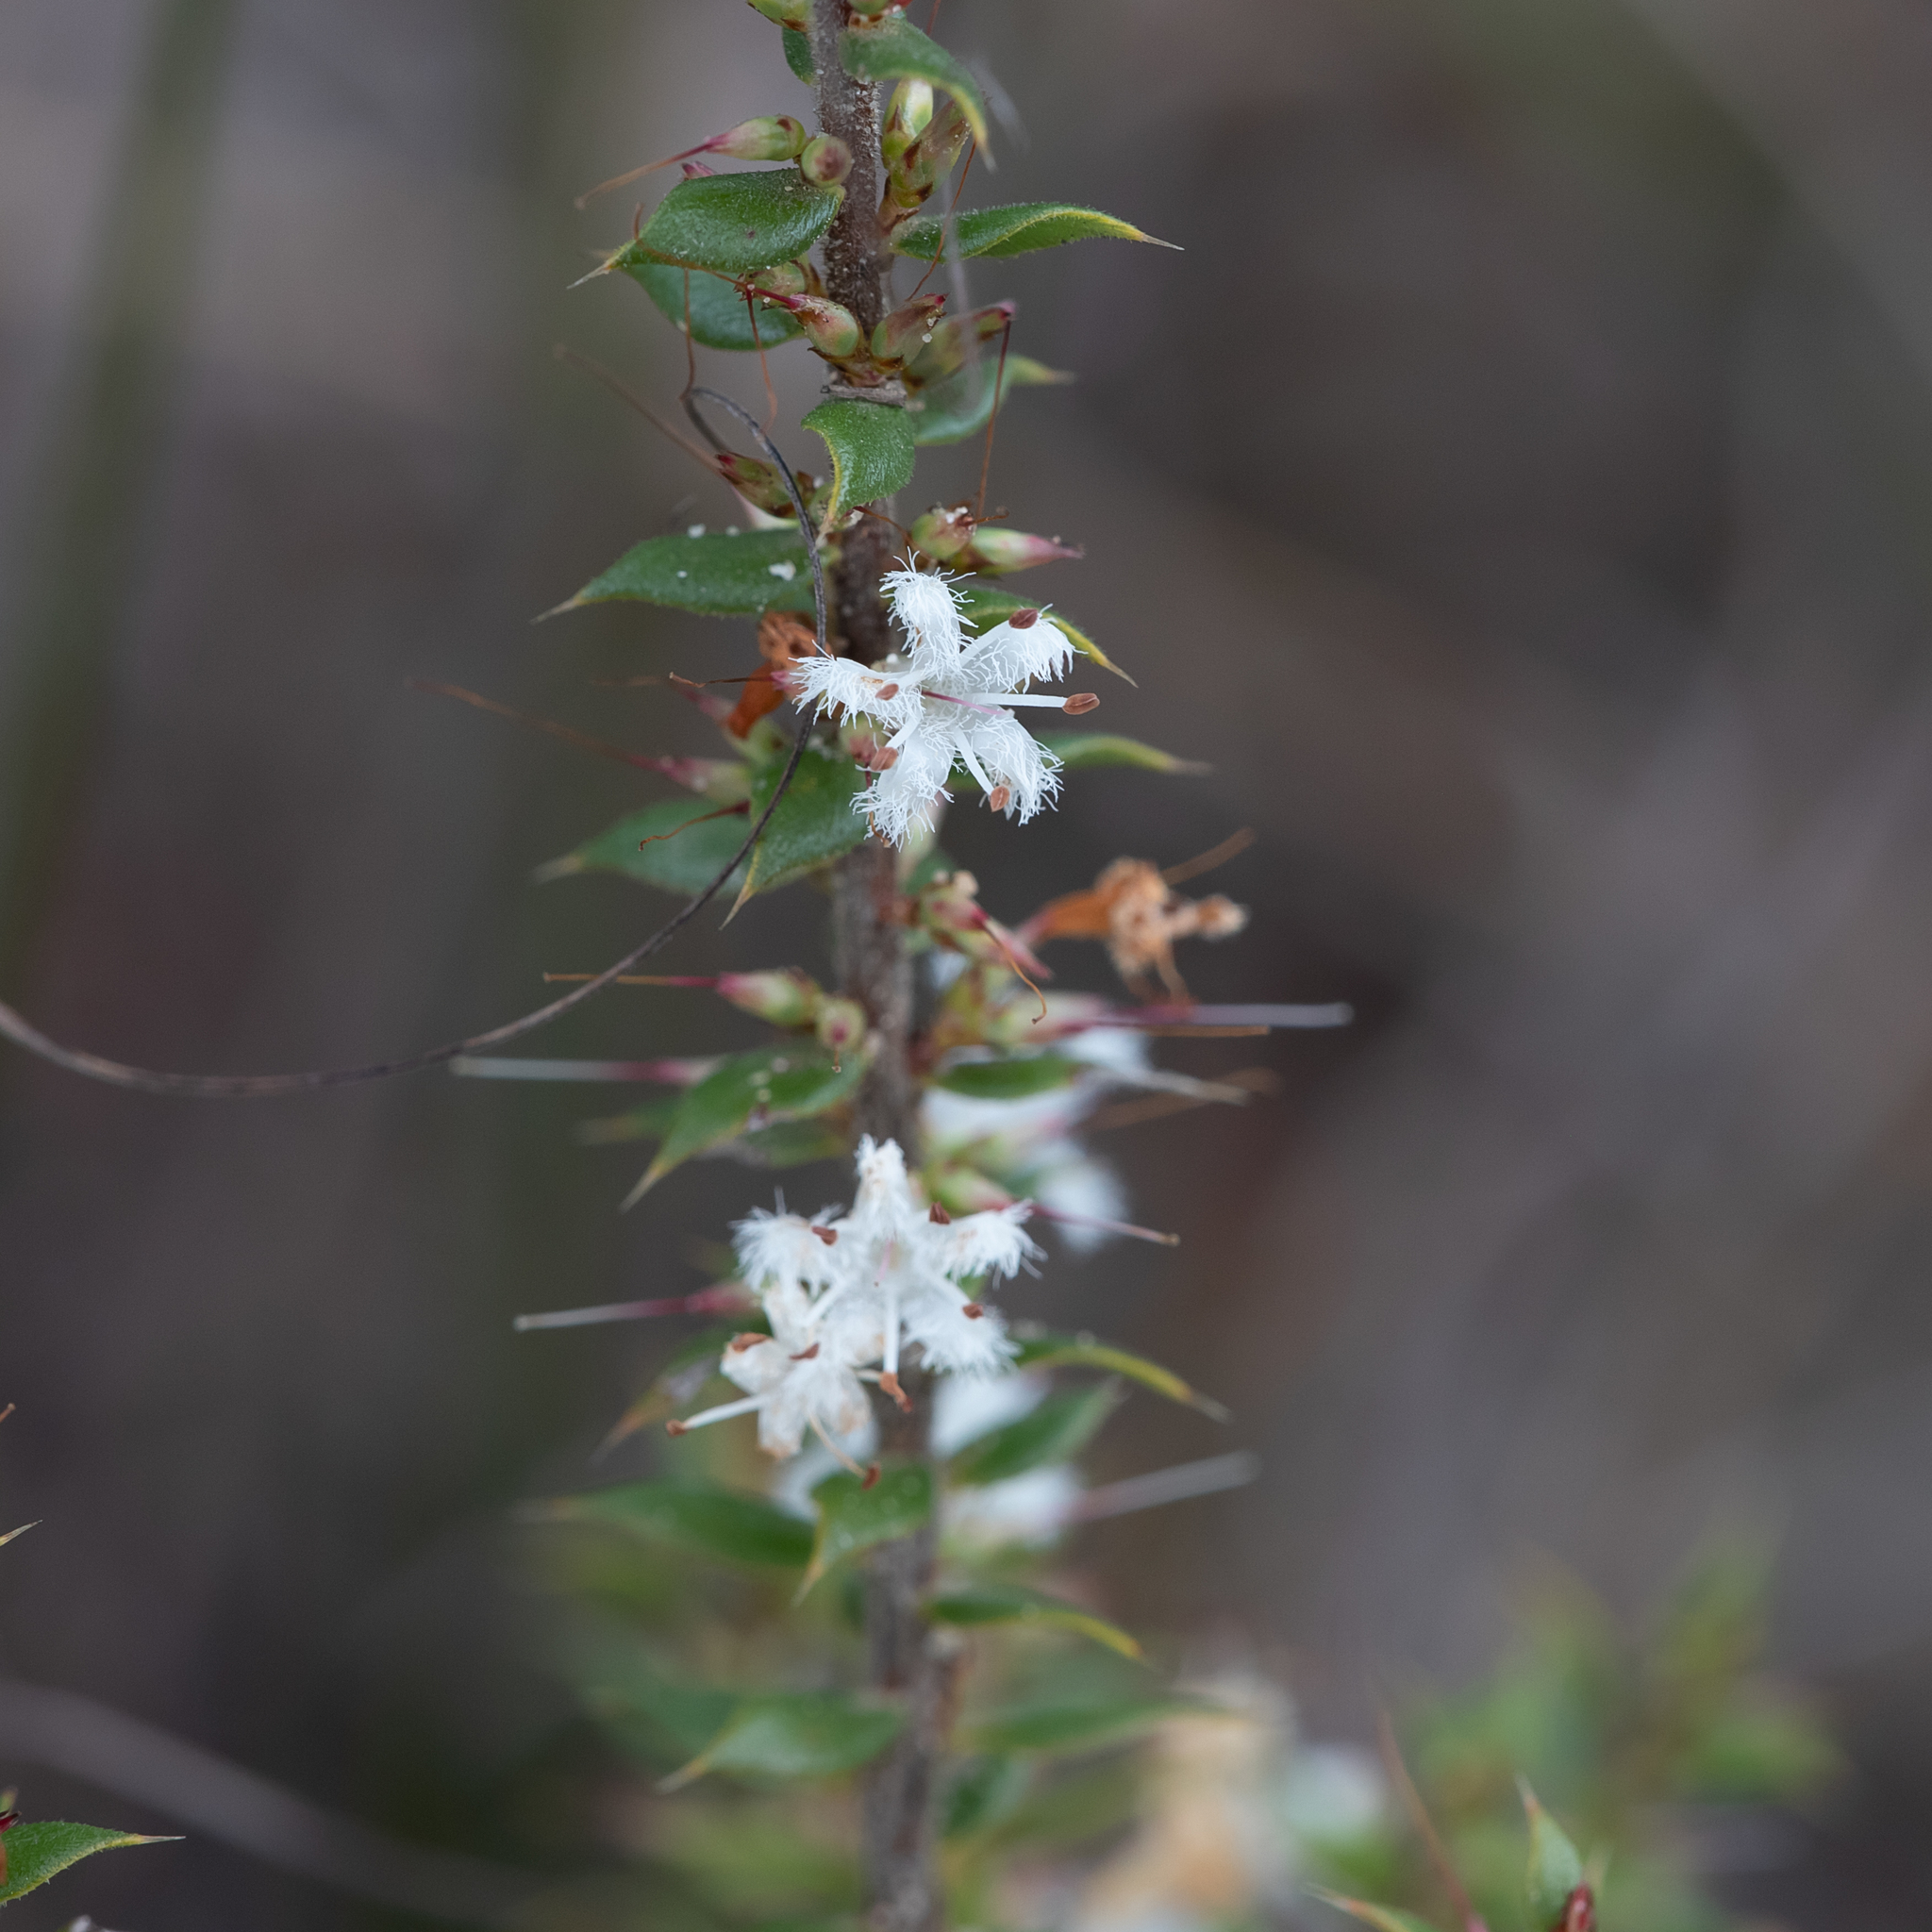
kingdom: Plantae
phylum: Tracheophyta
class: Magnoliopsida
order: Ericales
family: Ericaceae
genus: Styphelia
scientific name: Styphelia exarrhena
